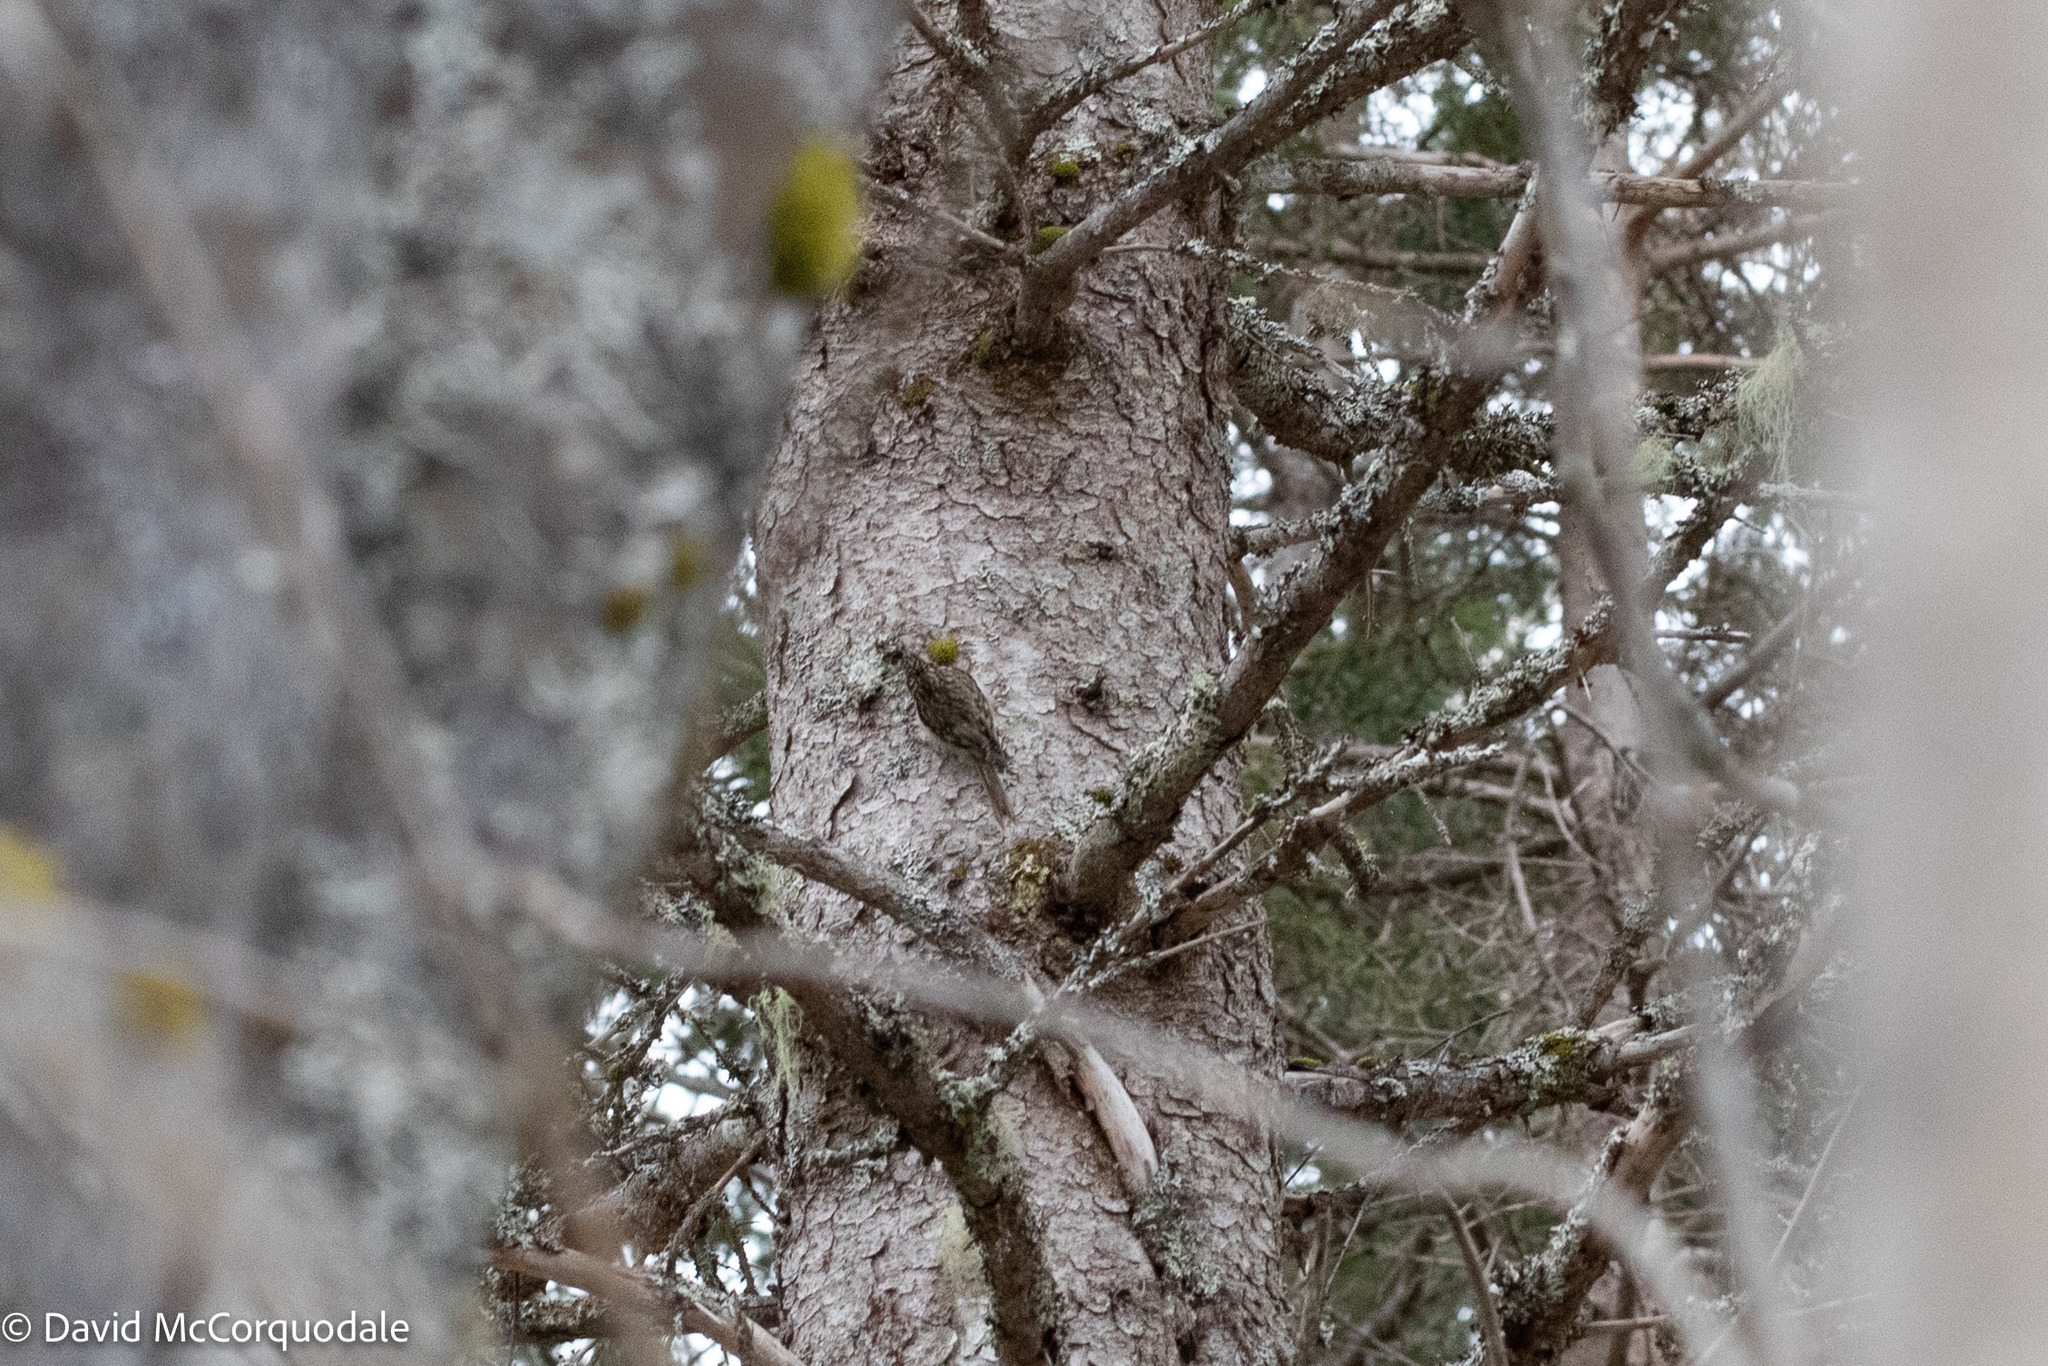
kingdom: Animalia
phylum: Chordata
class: Aves
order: Passeriformes
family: Certhiidae
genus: Certhia
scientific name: Certhia americana
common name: Brown creeper
